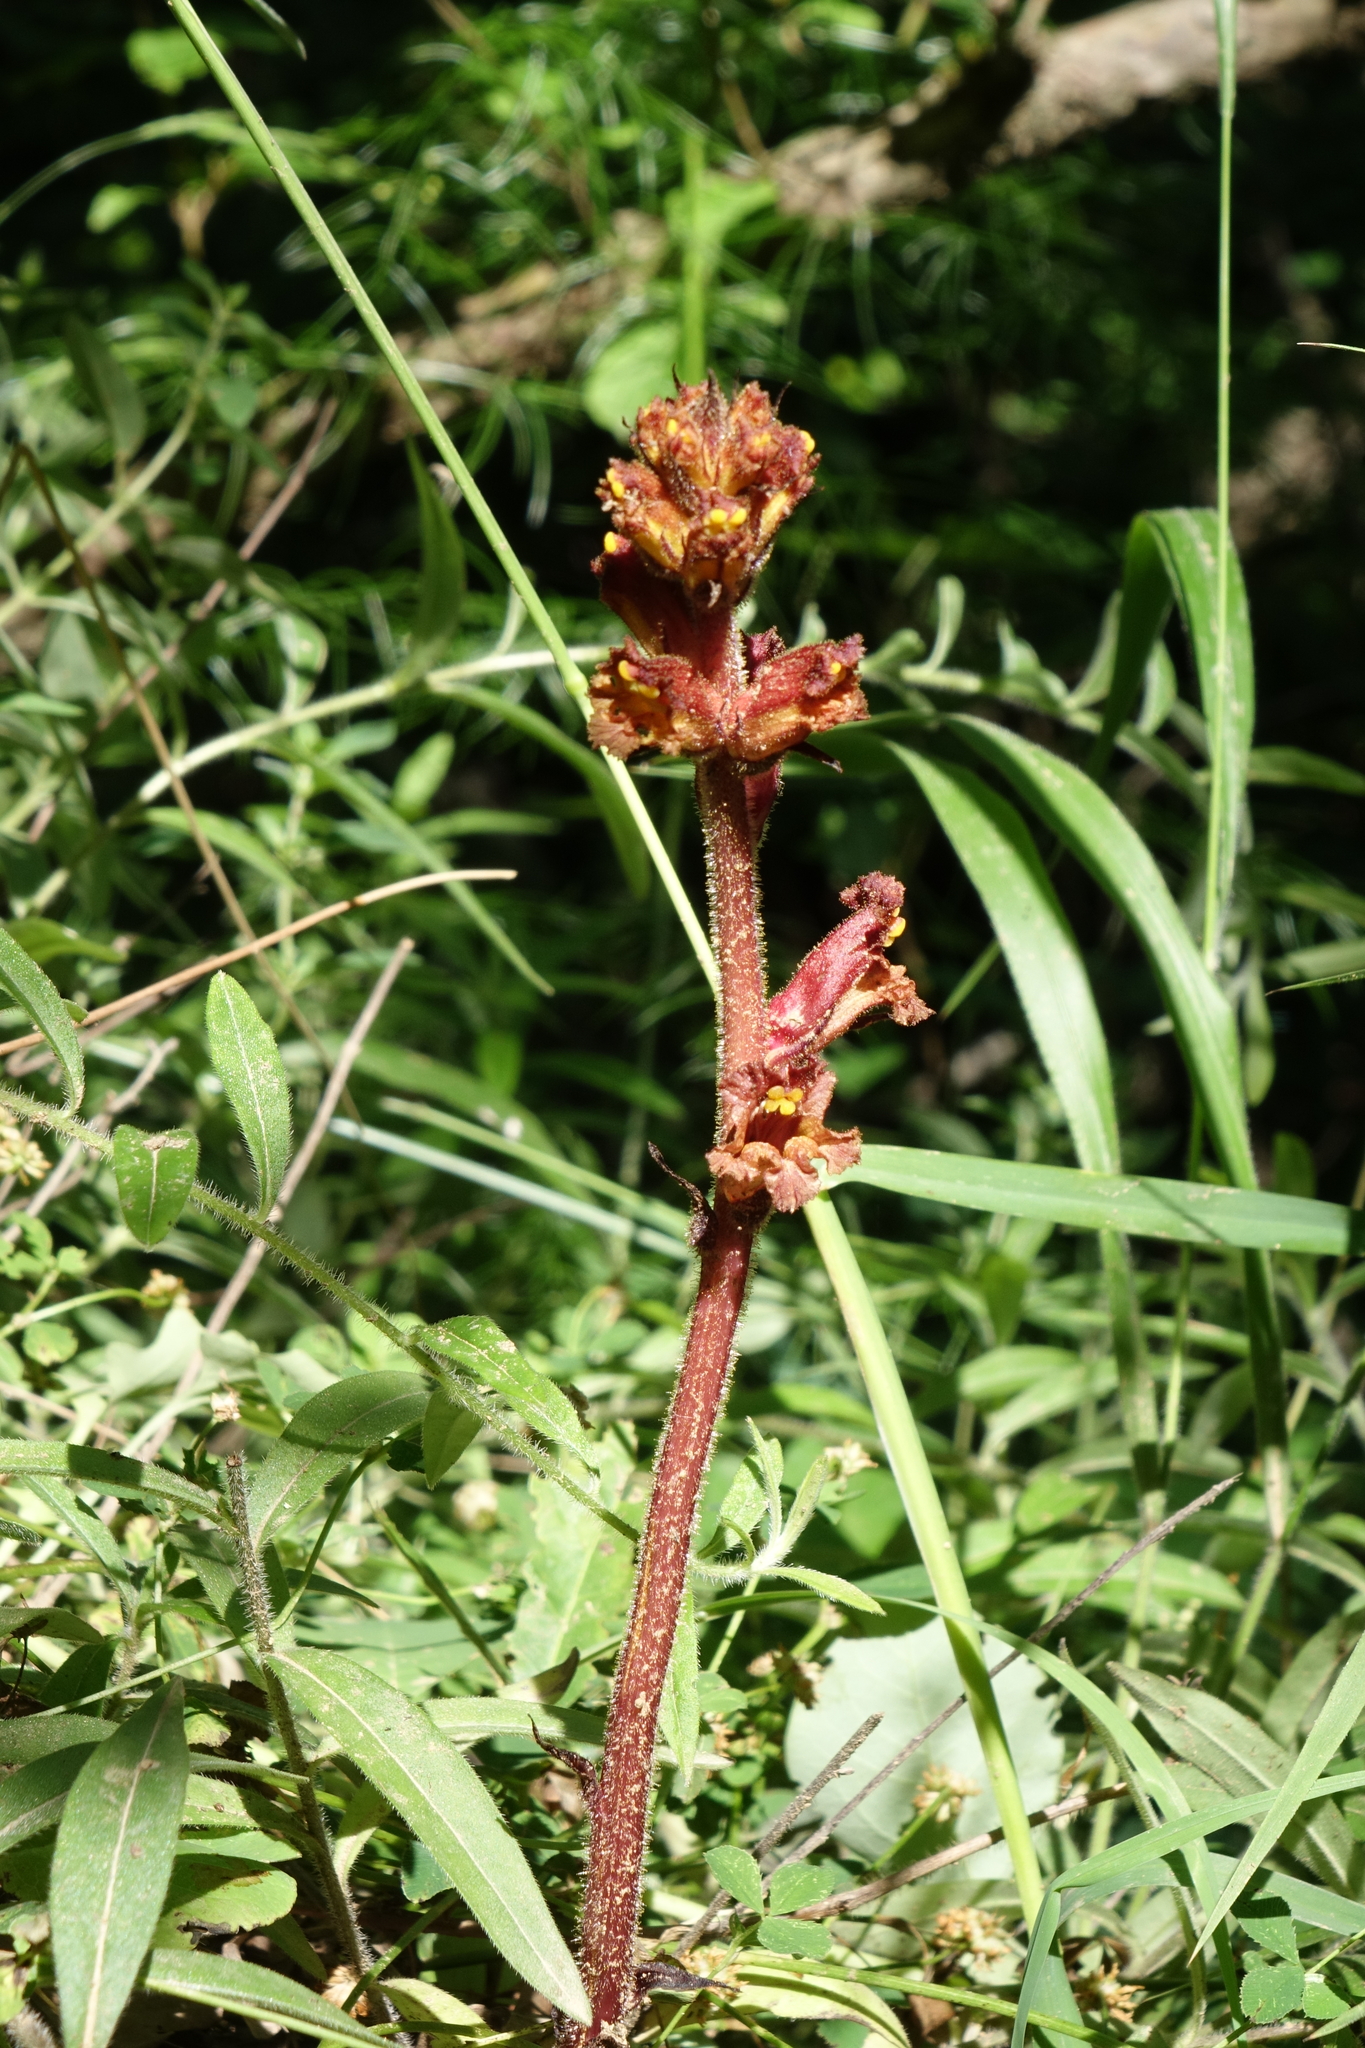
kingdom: Plantae
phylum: Tracheophyta
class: Magnoliopsida
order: Lamiales
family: Orobanchaceae
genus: Orobanche
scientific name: Orobanche alba
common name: Thyme broomrape
